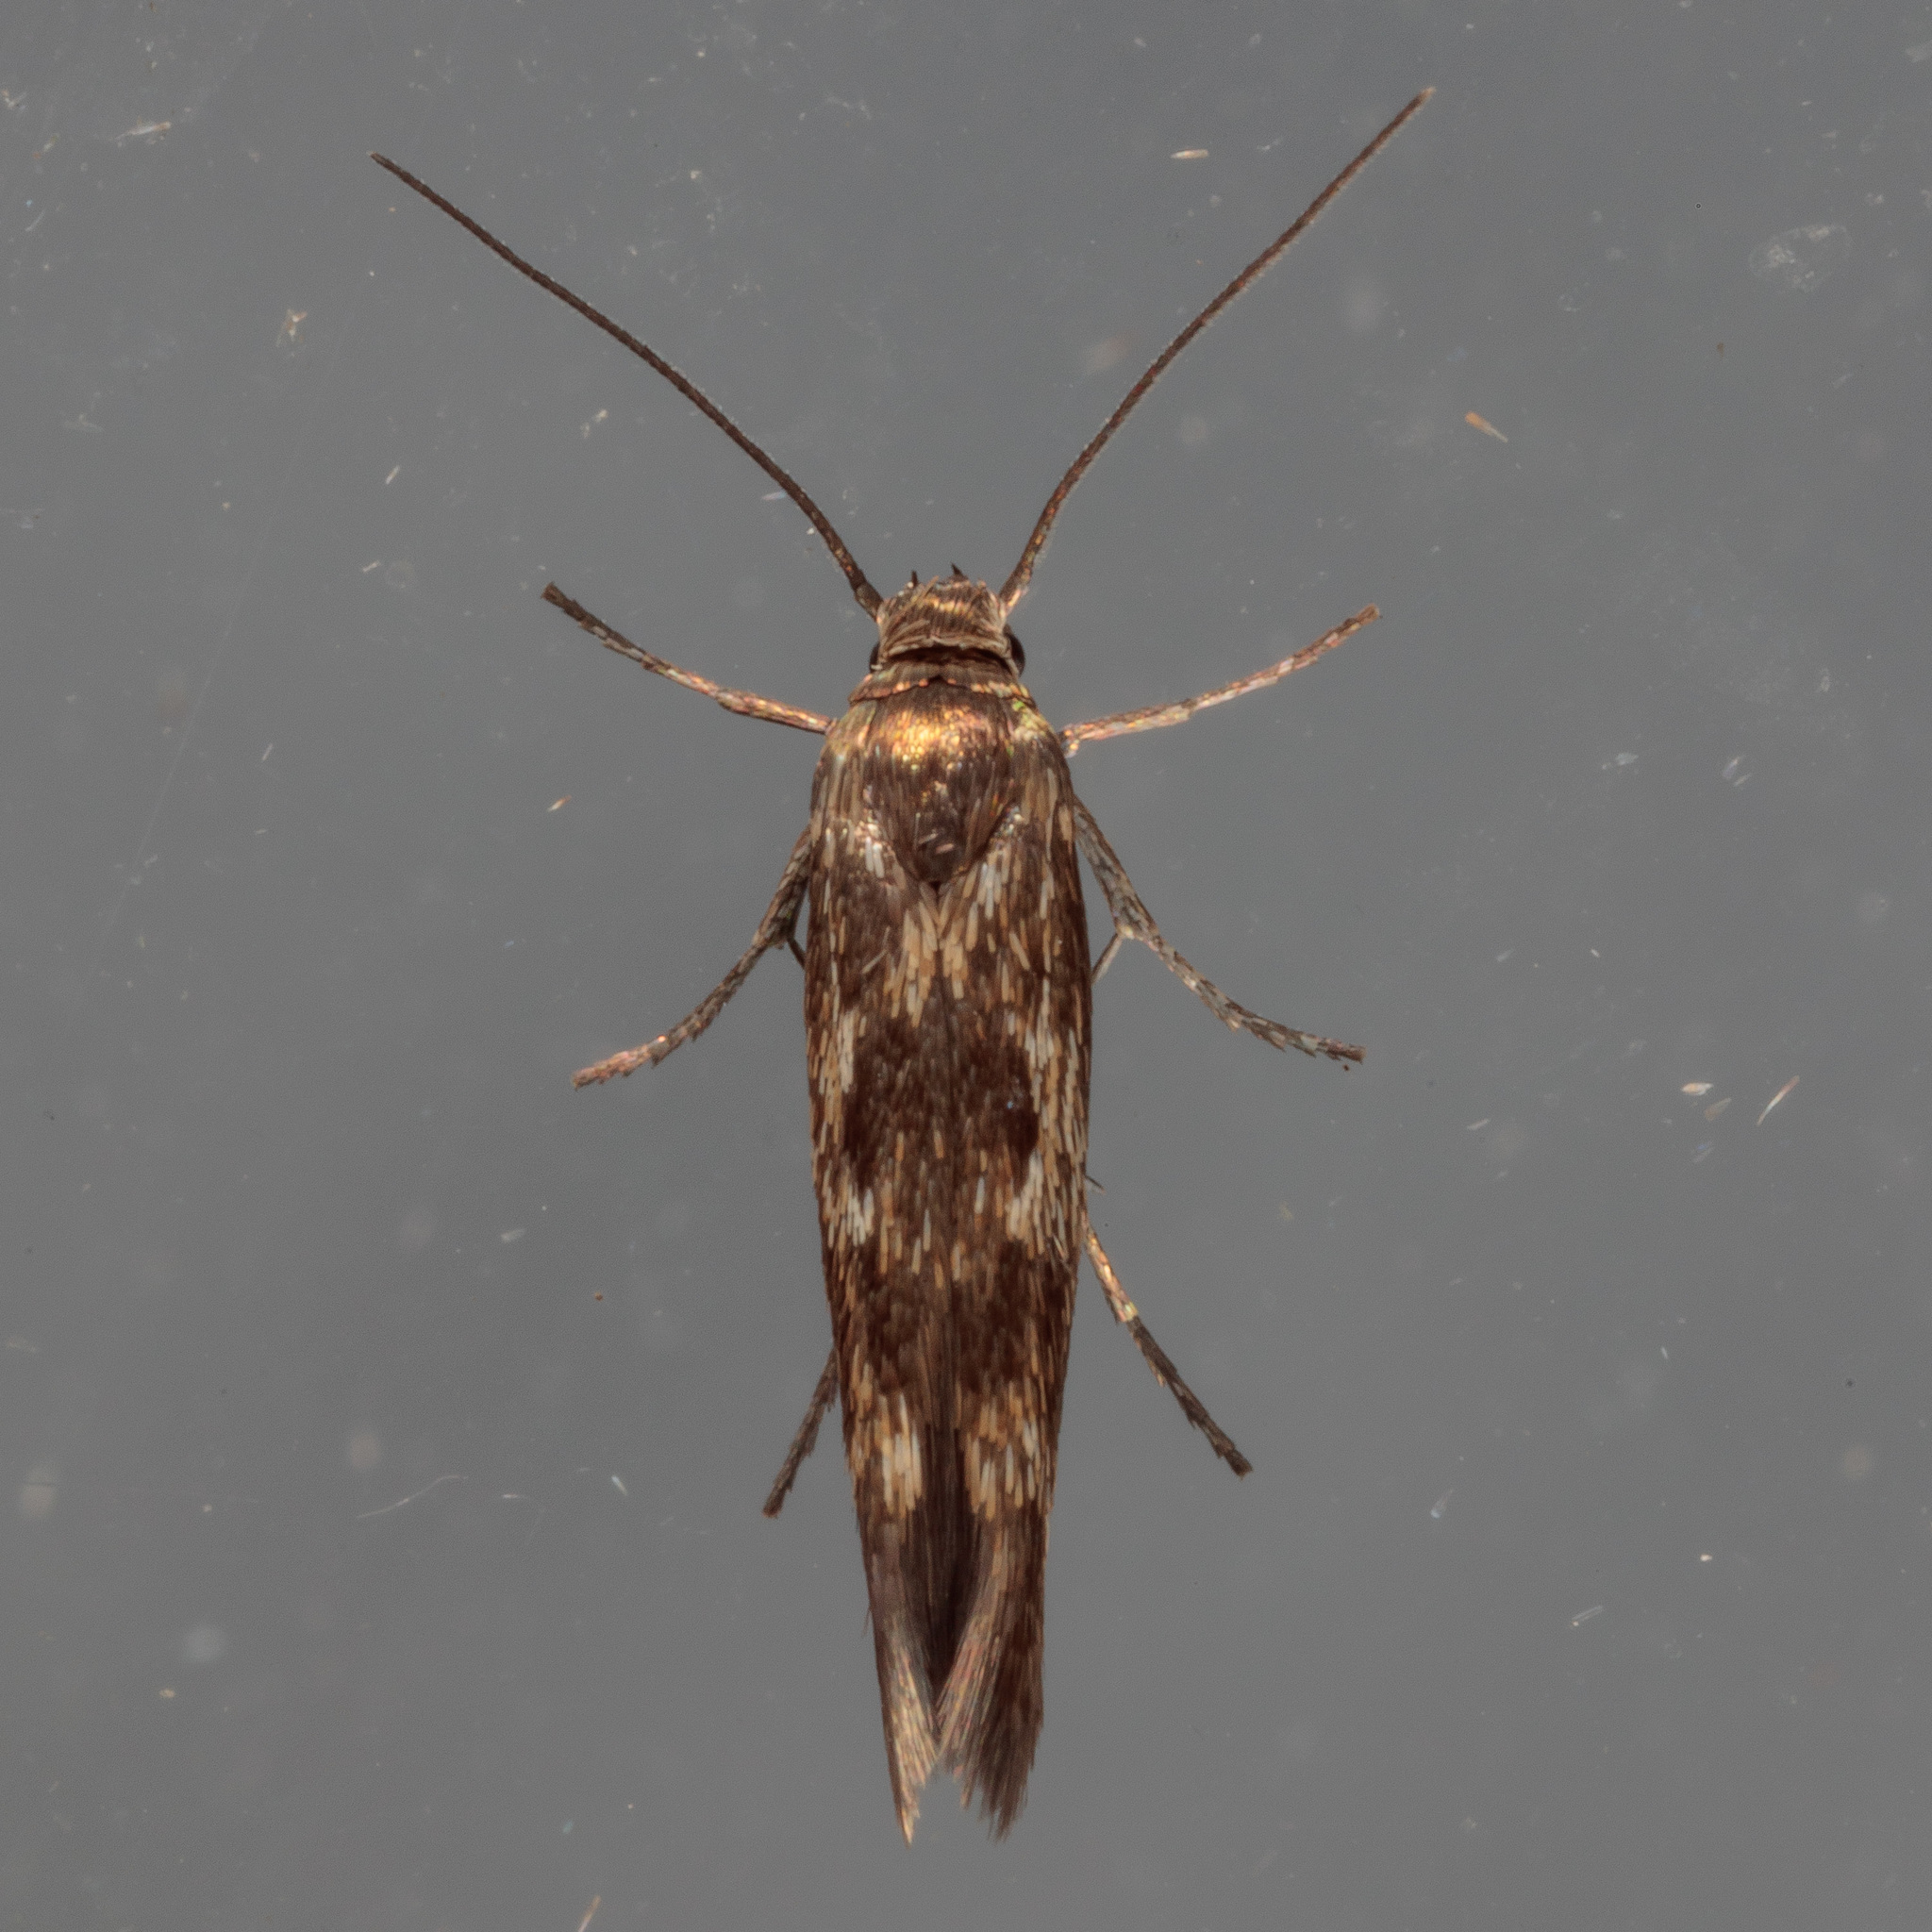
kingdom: Animalia
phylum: Arthropoda
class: Insecta
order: Lepidoptera
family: Scythrididae
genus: Scythris
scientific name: Scythris trivinctella
